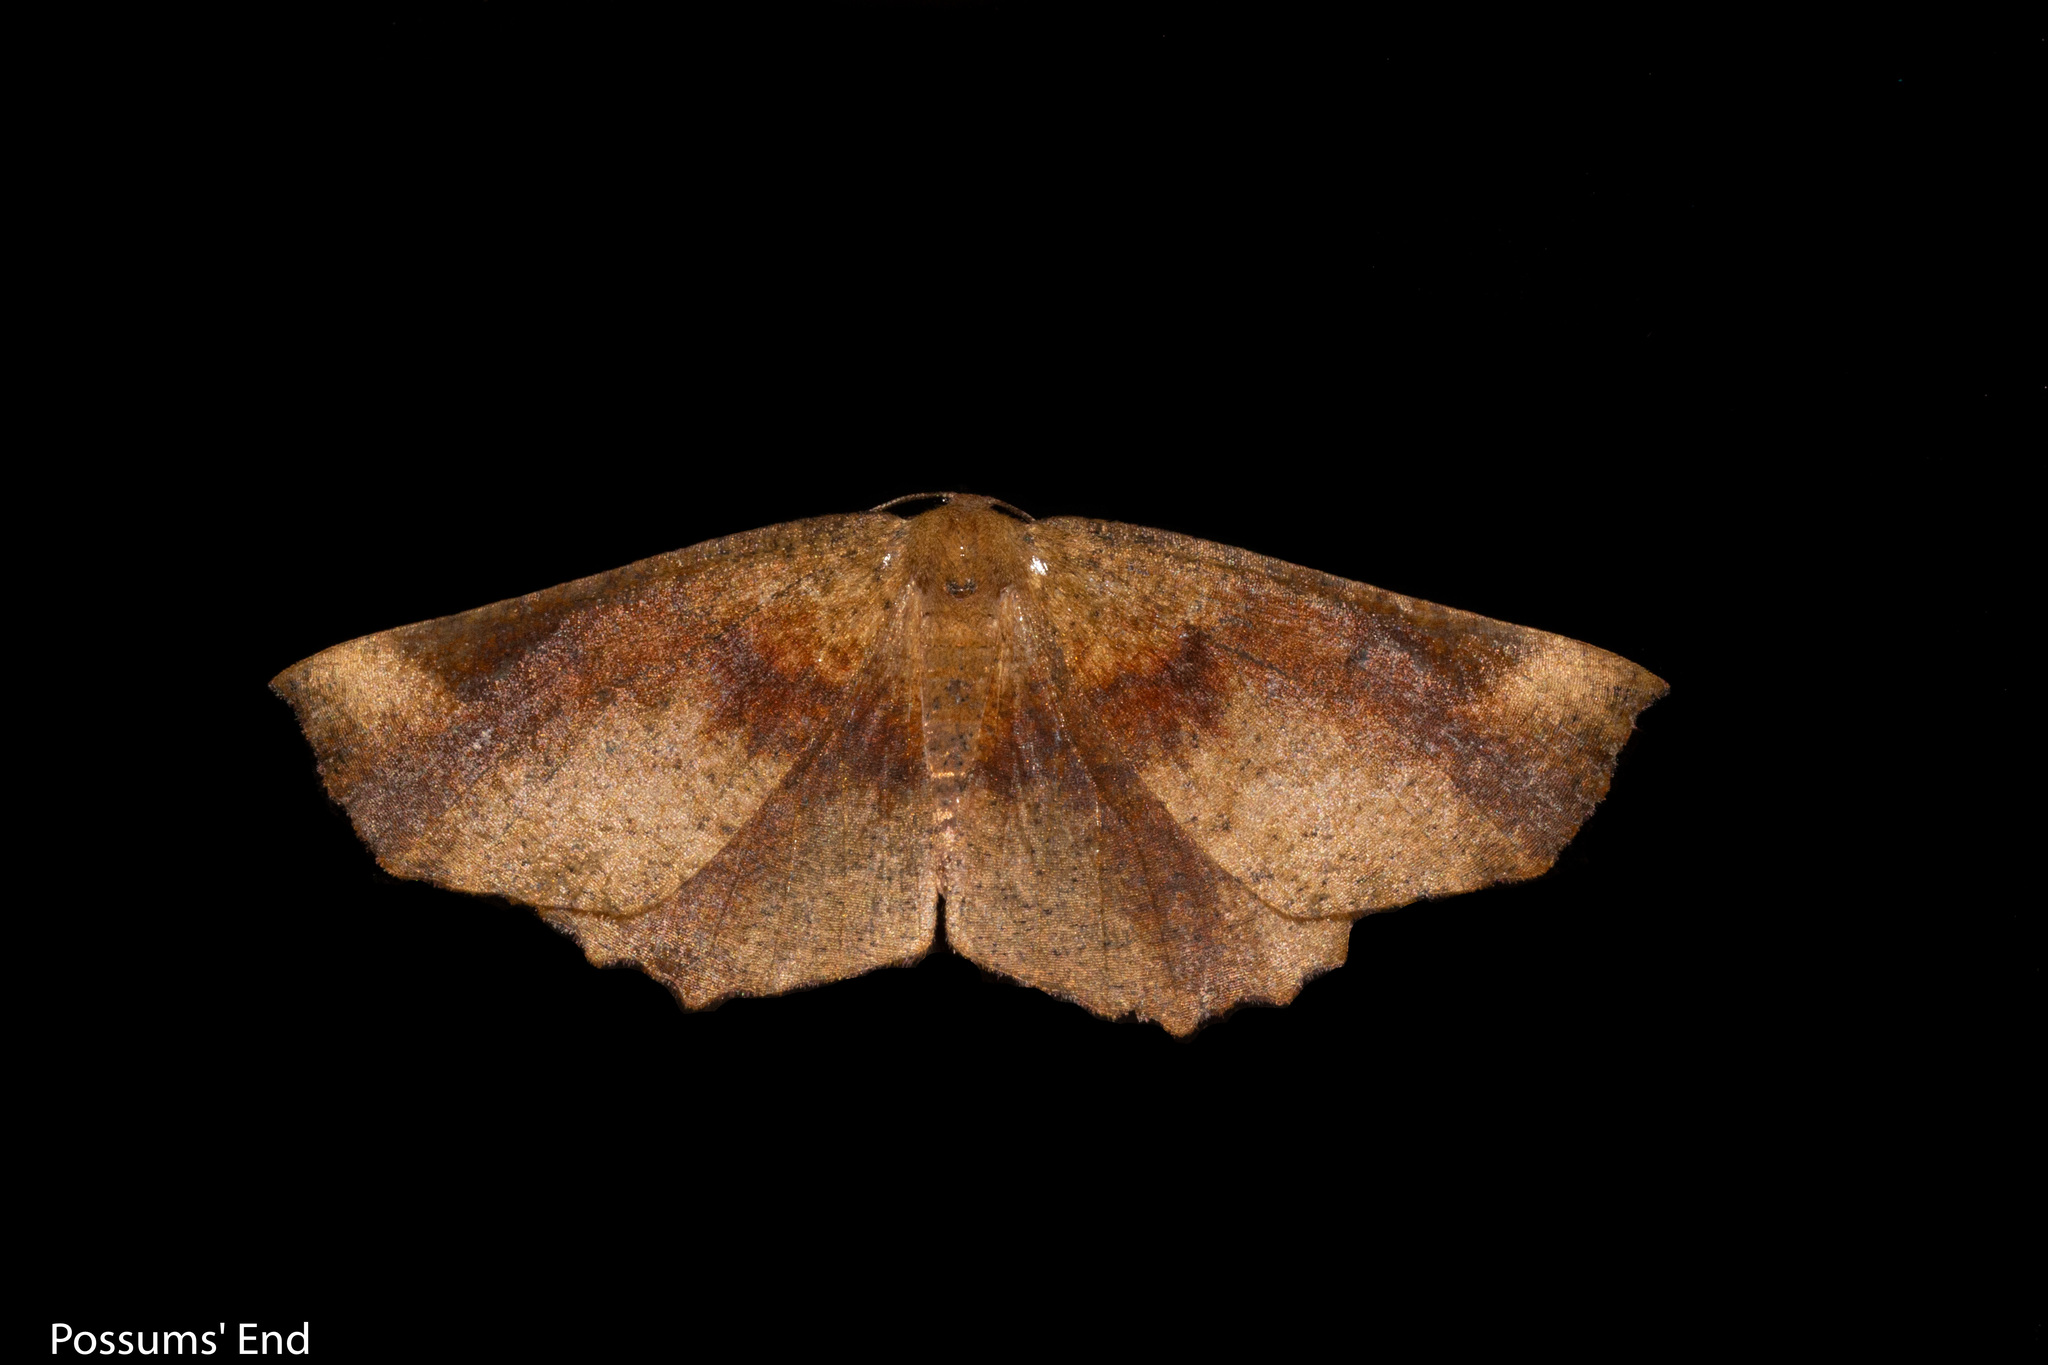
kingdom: Animalia
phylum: Arthropoda
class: Insecta
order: Lepidoptera
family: Geometridae
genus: Xyridacma
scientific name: Xyridacma ustaria
